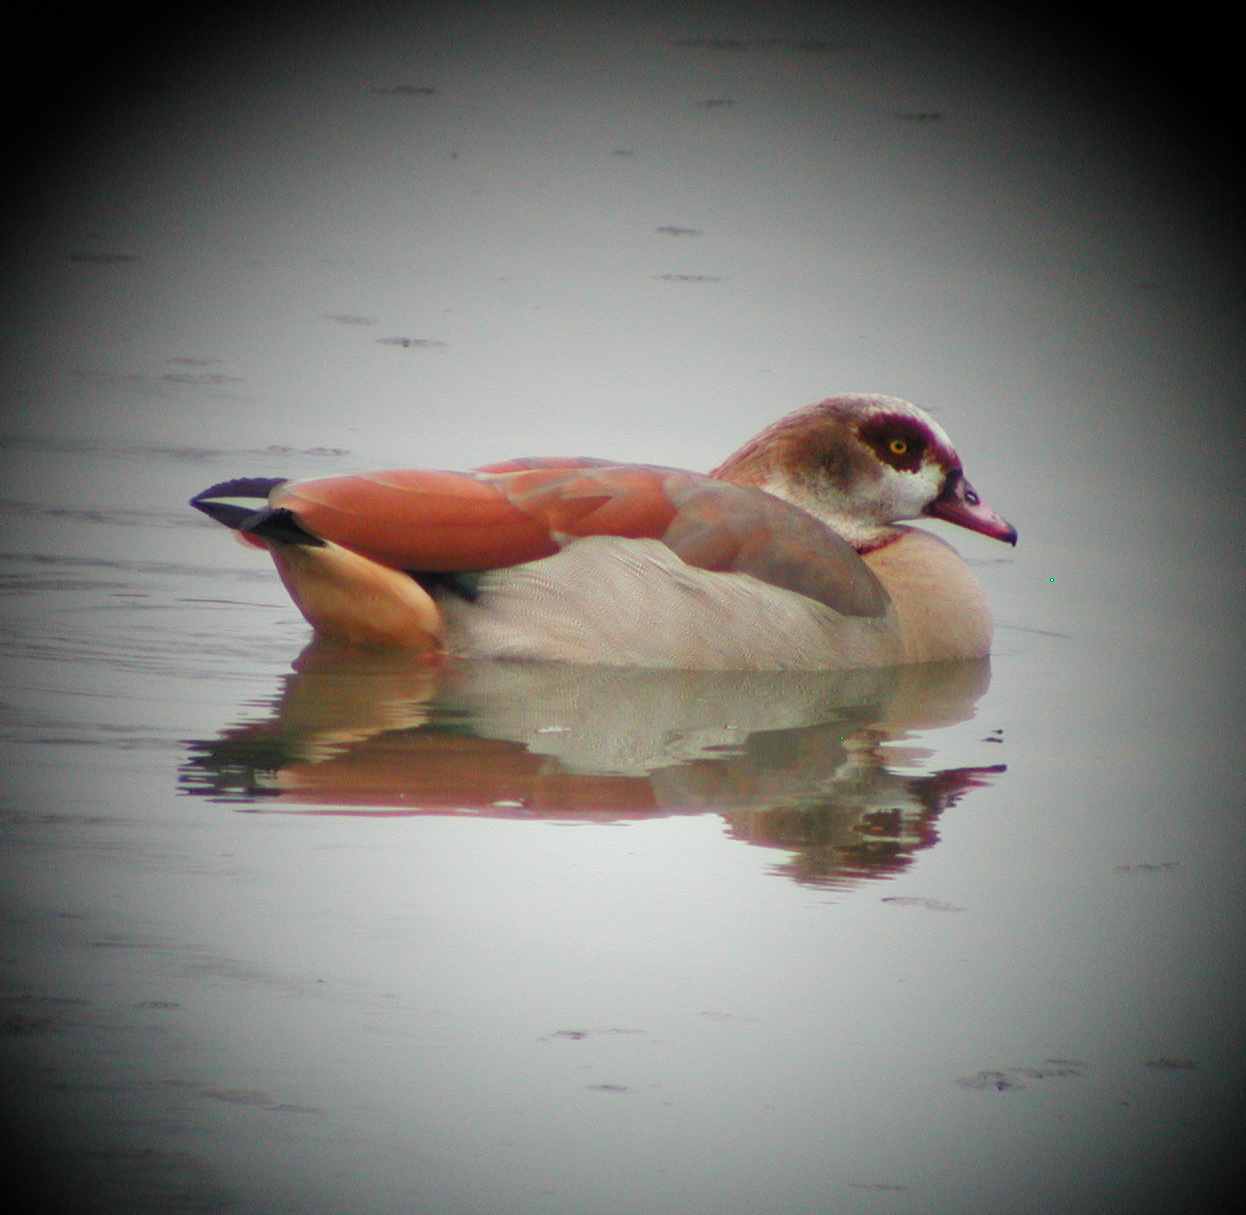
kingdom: Animalia
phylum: Chordata
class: Aves
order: Anseriformes
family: Anatidae
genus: Alopochen
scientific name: Alopochen aegyptiaca
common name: Egyptian goose
